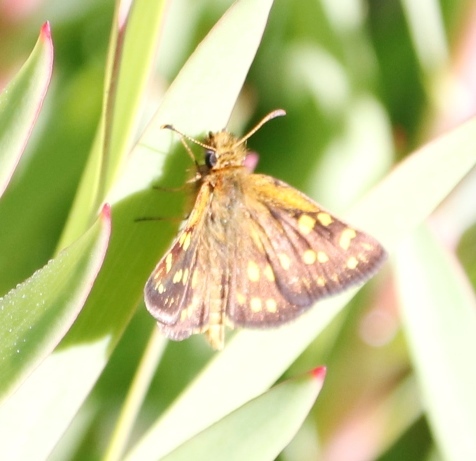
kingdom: Animalia
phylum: Arthropoda
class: Insecta
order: Lepidoptera
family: Hesperiidae
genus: Metisella
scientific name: Metisella malgacha
